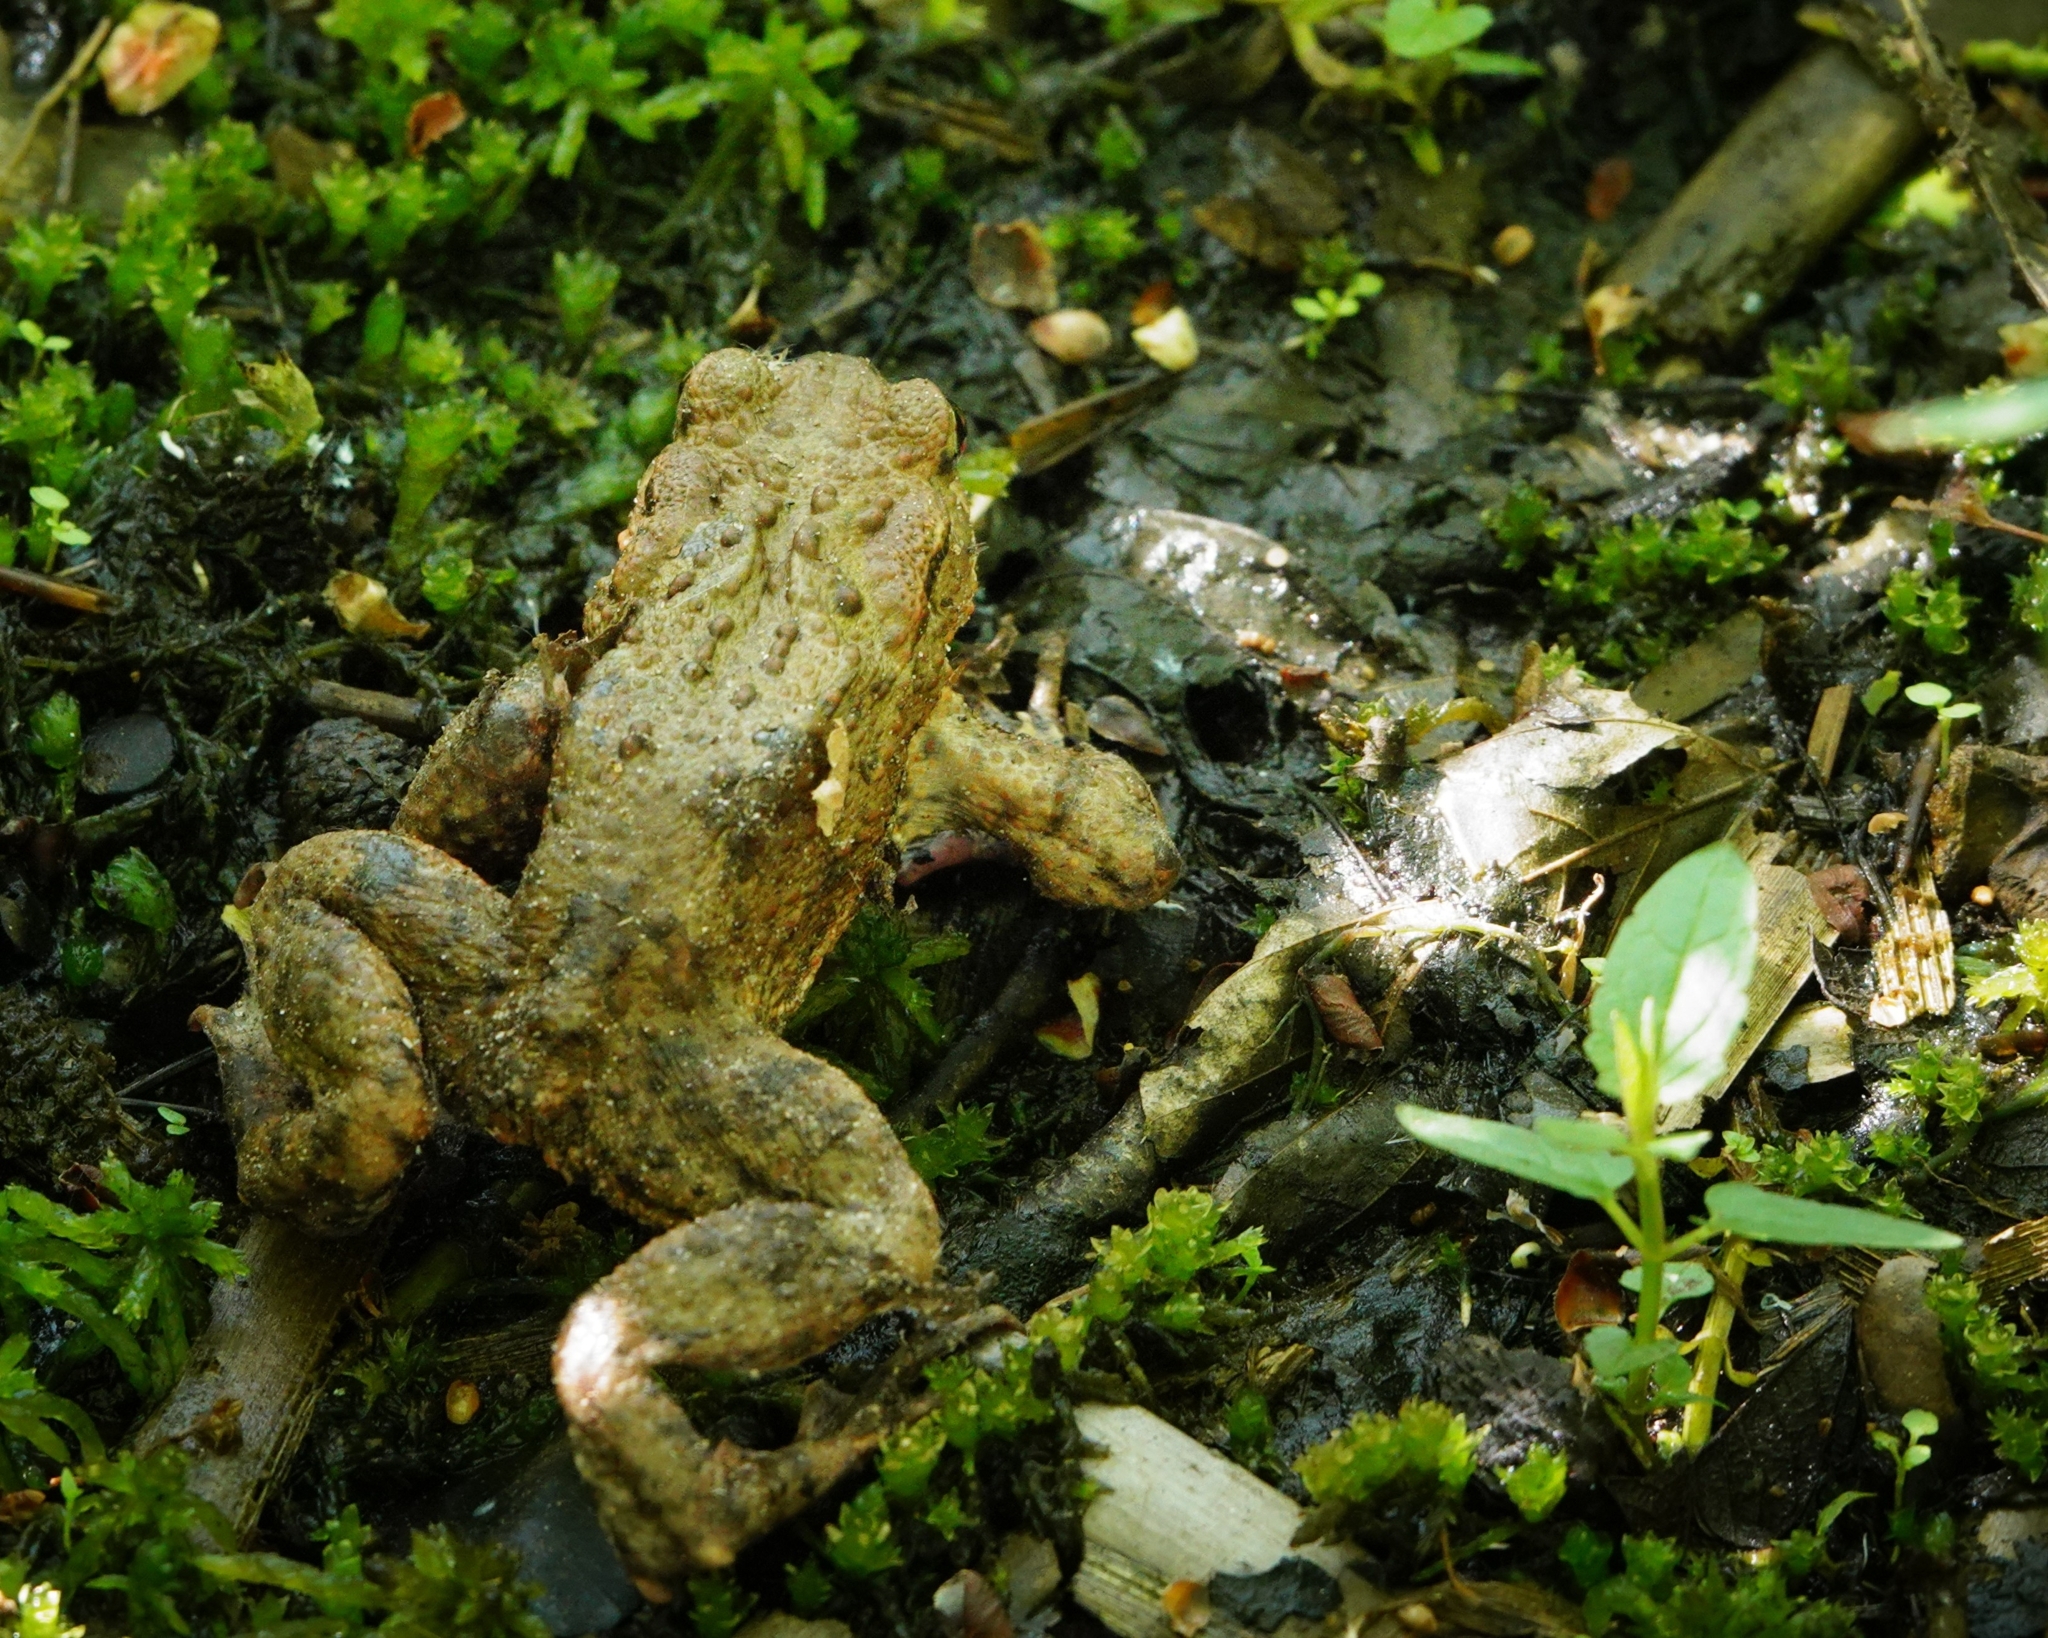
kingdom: Animalia
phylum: Chordata
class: Amphibia
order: Anura
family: Bufonidae
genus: Bufo
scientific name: Bufo bufo
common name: Common toad
